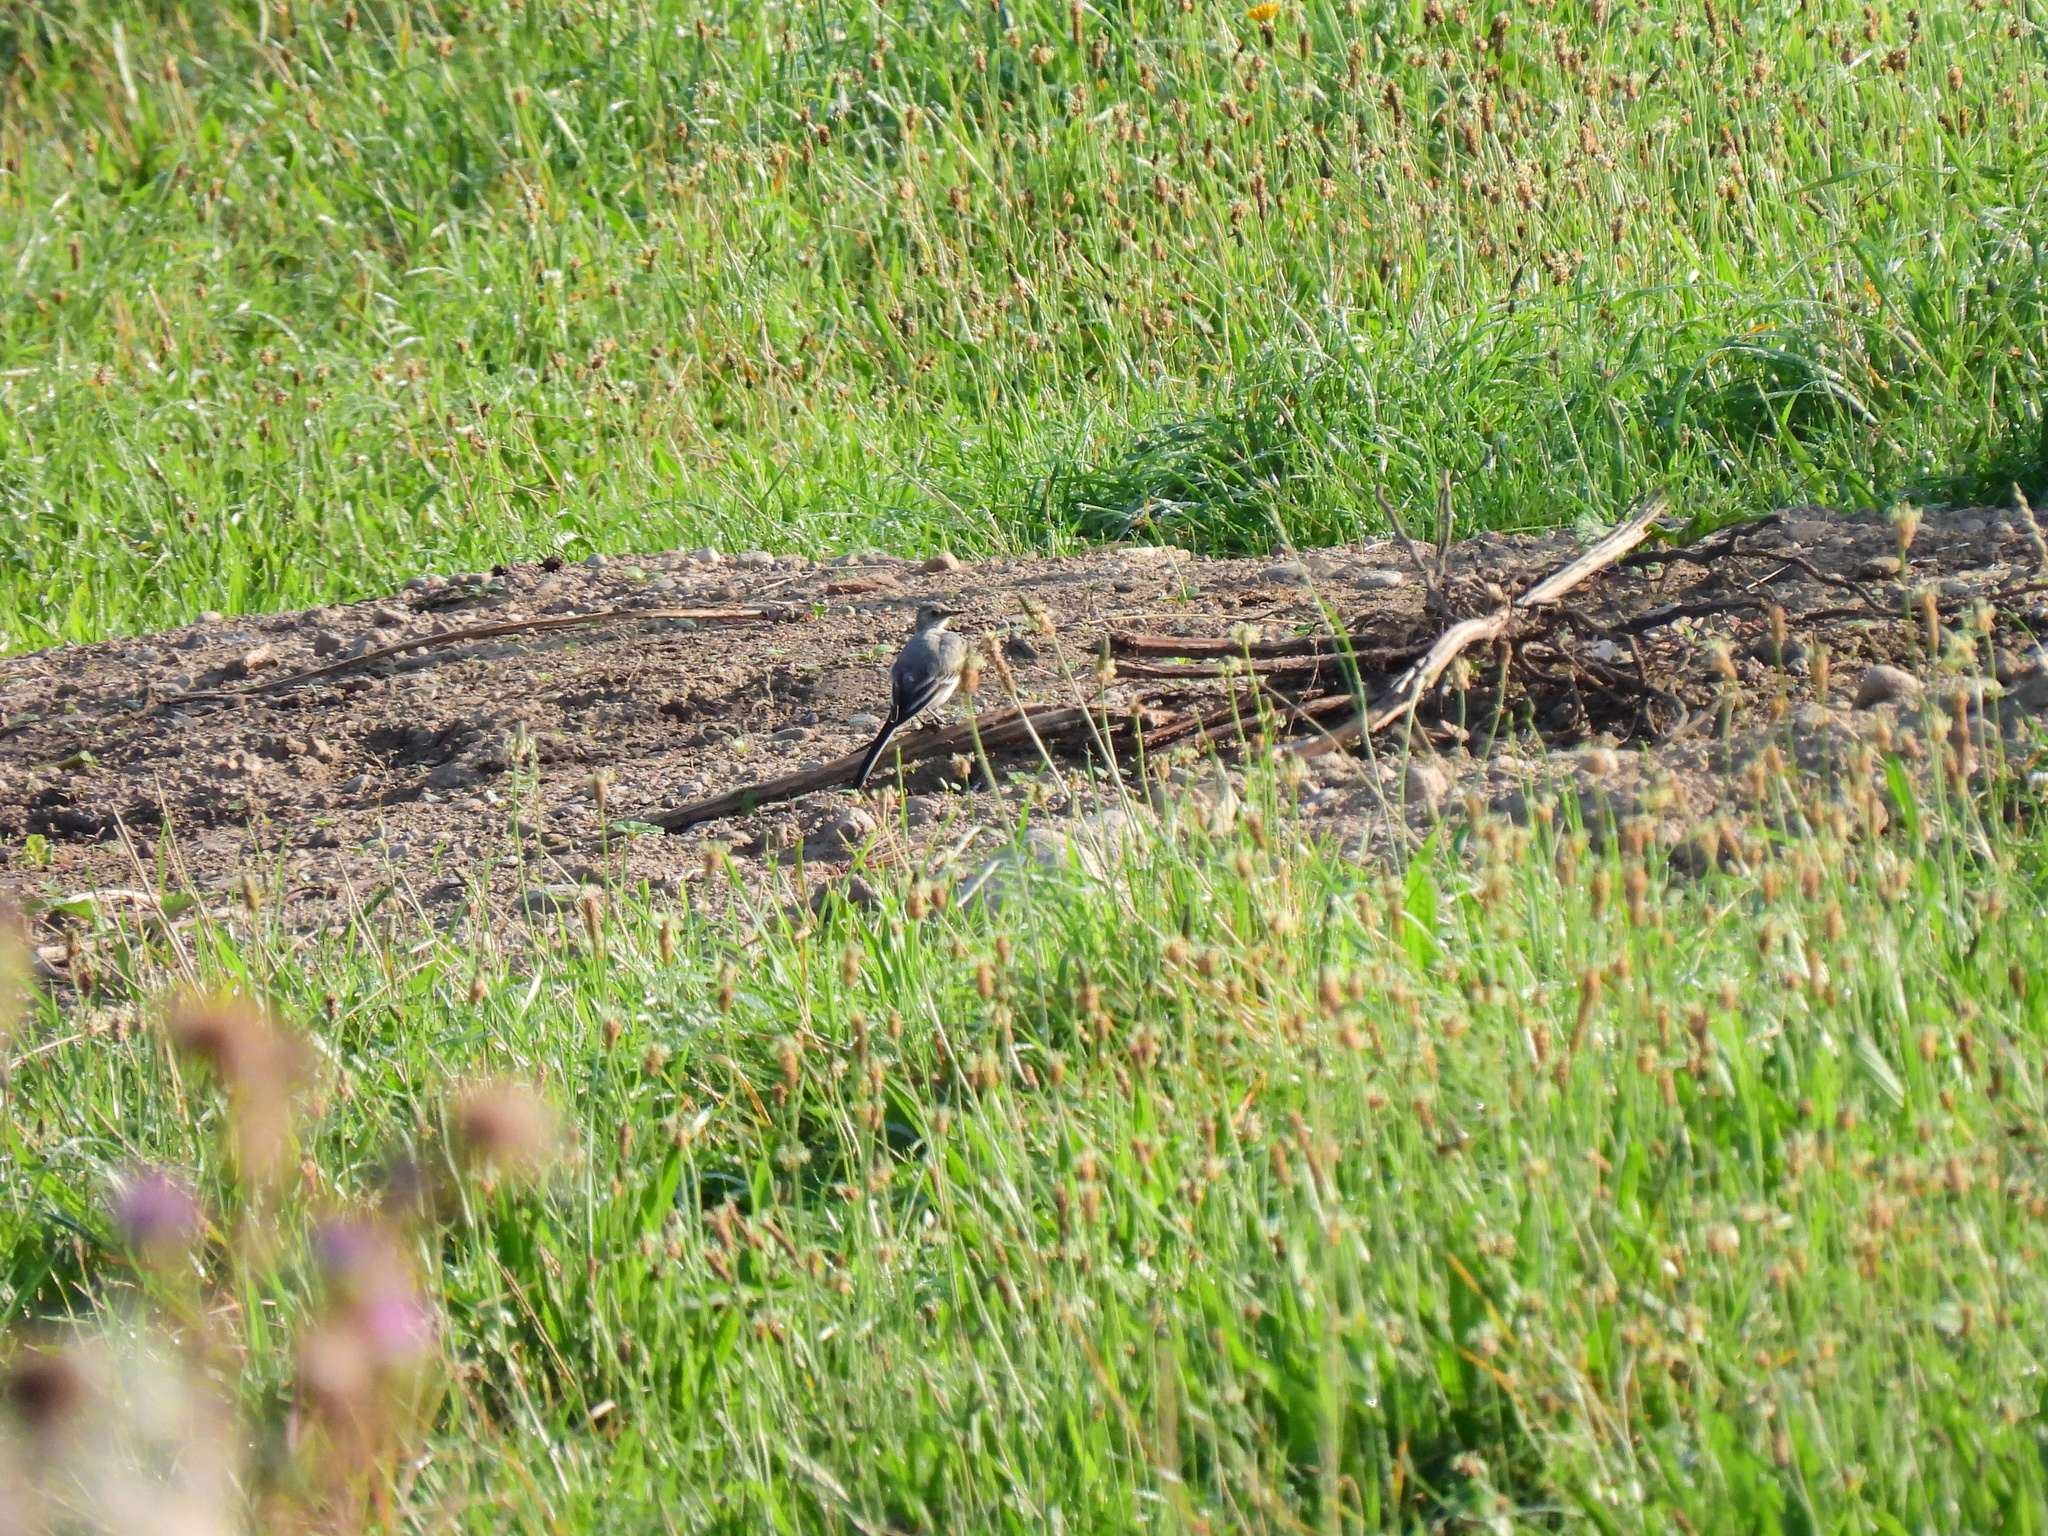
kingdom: Animalia
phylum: Chordata
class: Aves
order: Passeriformes
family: Motacillidae
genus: Motacilla
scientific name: Motacilla alba
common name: White wagtail
